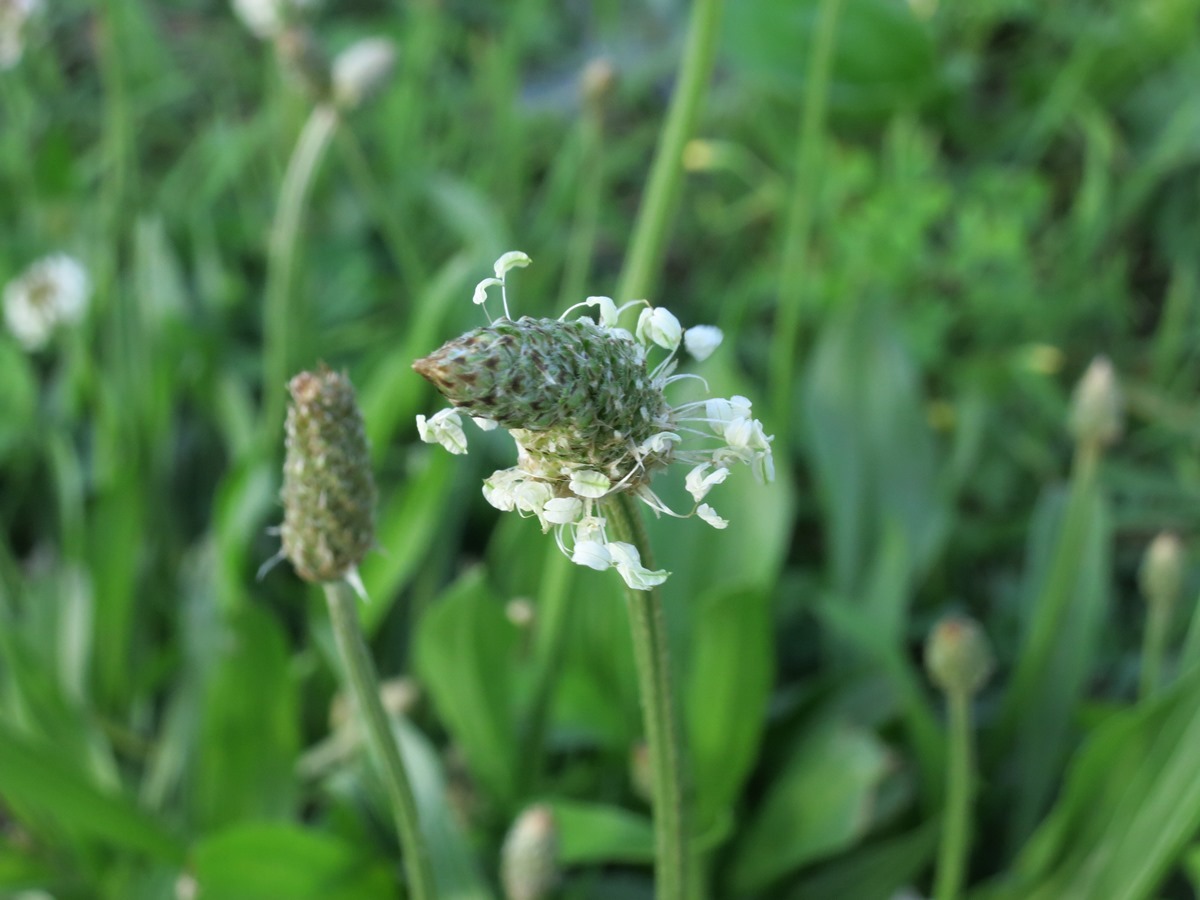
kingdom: Plantae
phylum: Tracheophyta
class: Magnoliopsida
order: Lamiales
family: Plantaginaceae
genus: Plantago
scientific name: Plantago lanceolata
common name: Ribwort plantain
